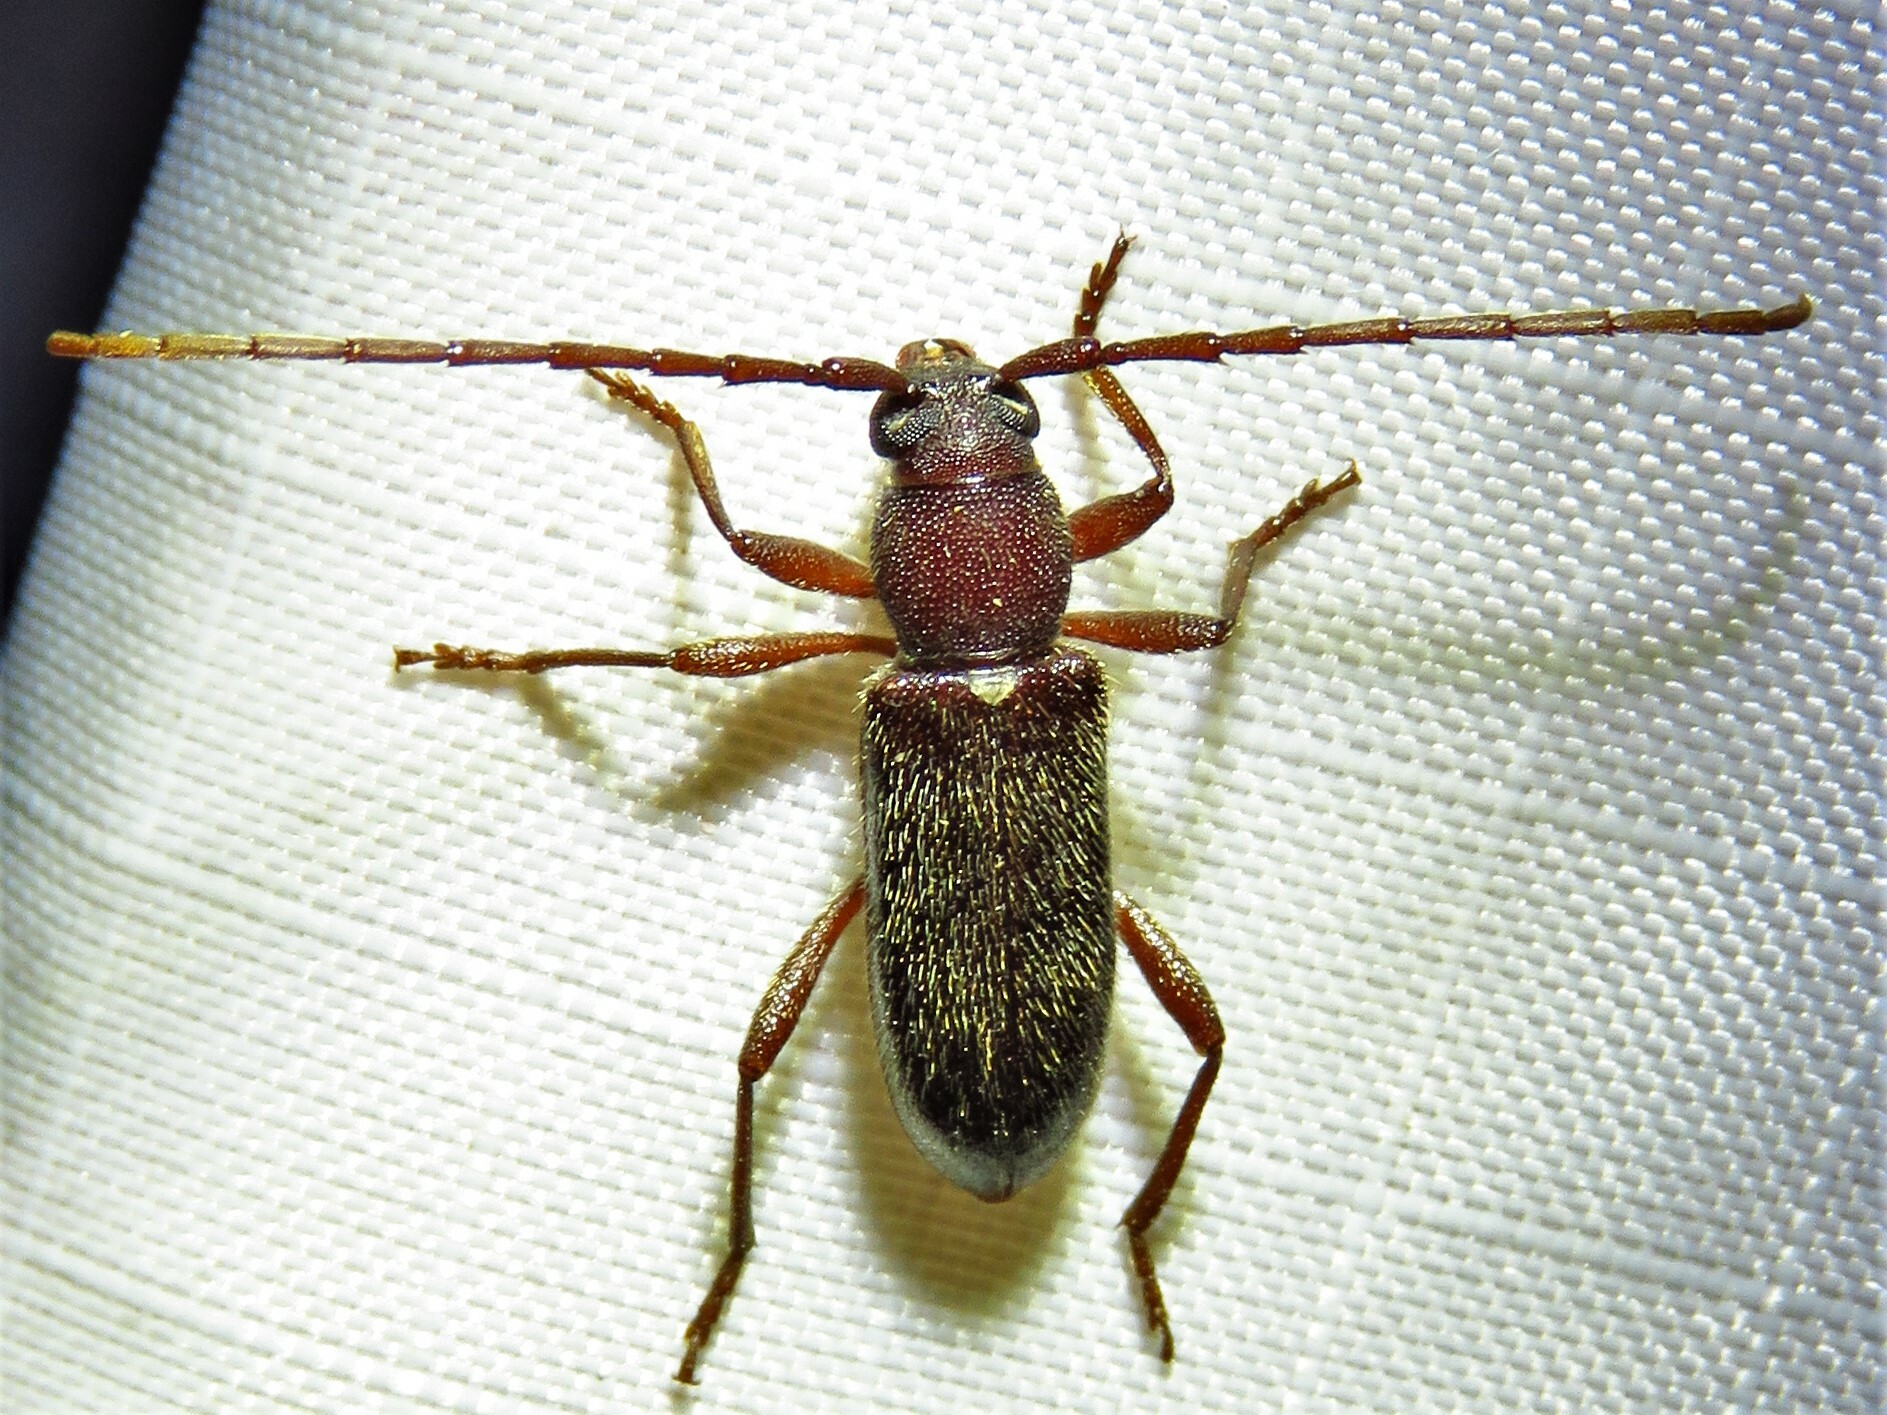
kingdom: Animalia
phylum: Arthropoda
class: Insecta
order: Coleoptera
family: Cerambycidae
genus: Anelaphus
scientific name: Anelaphus moestus
